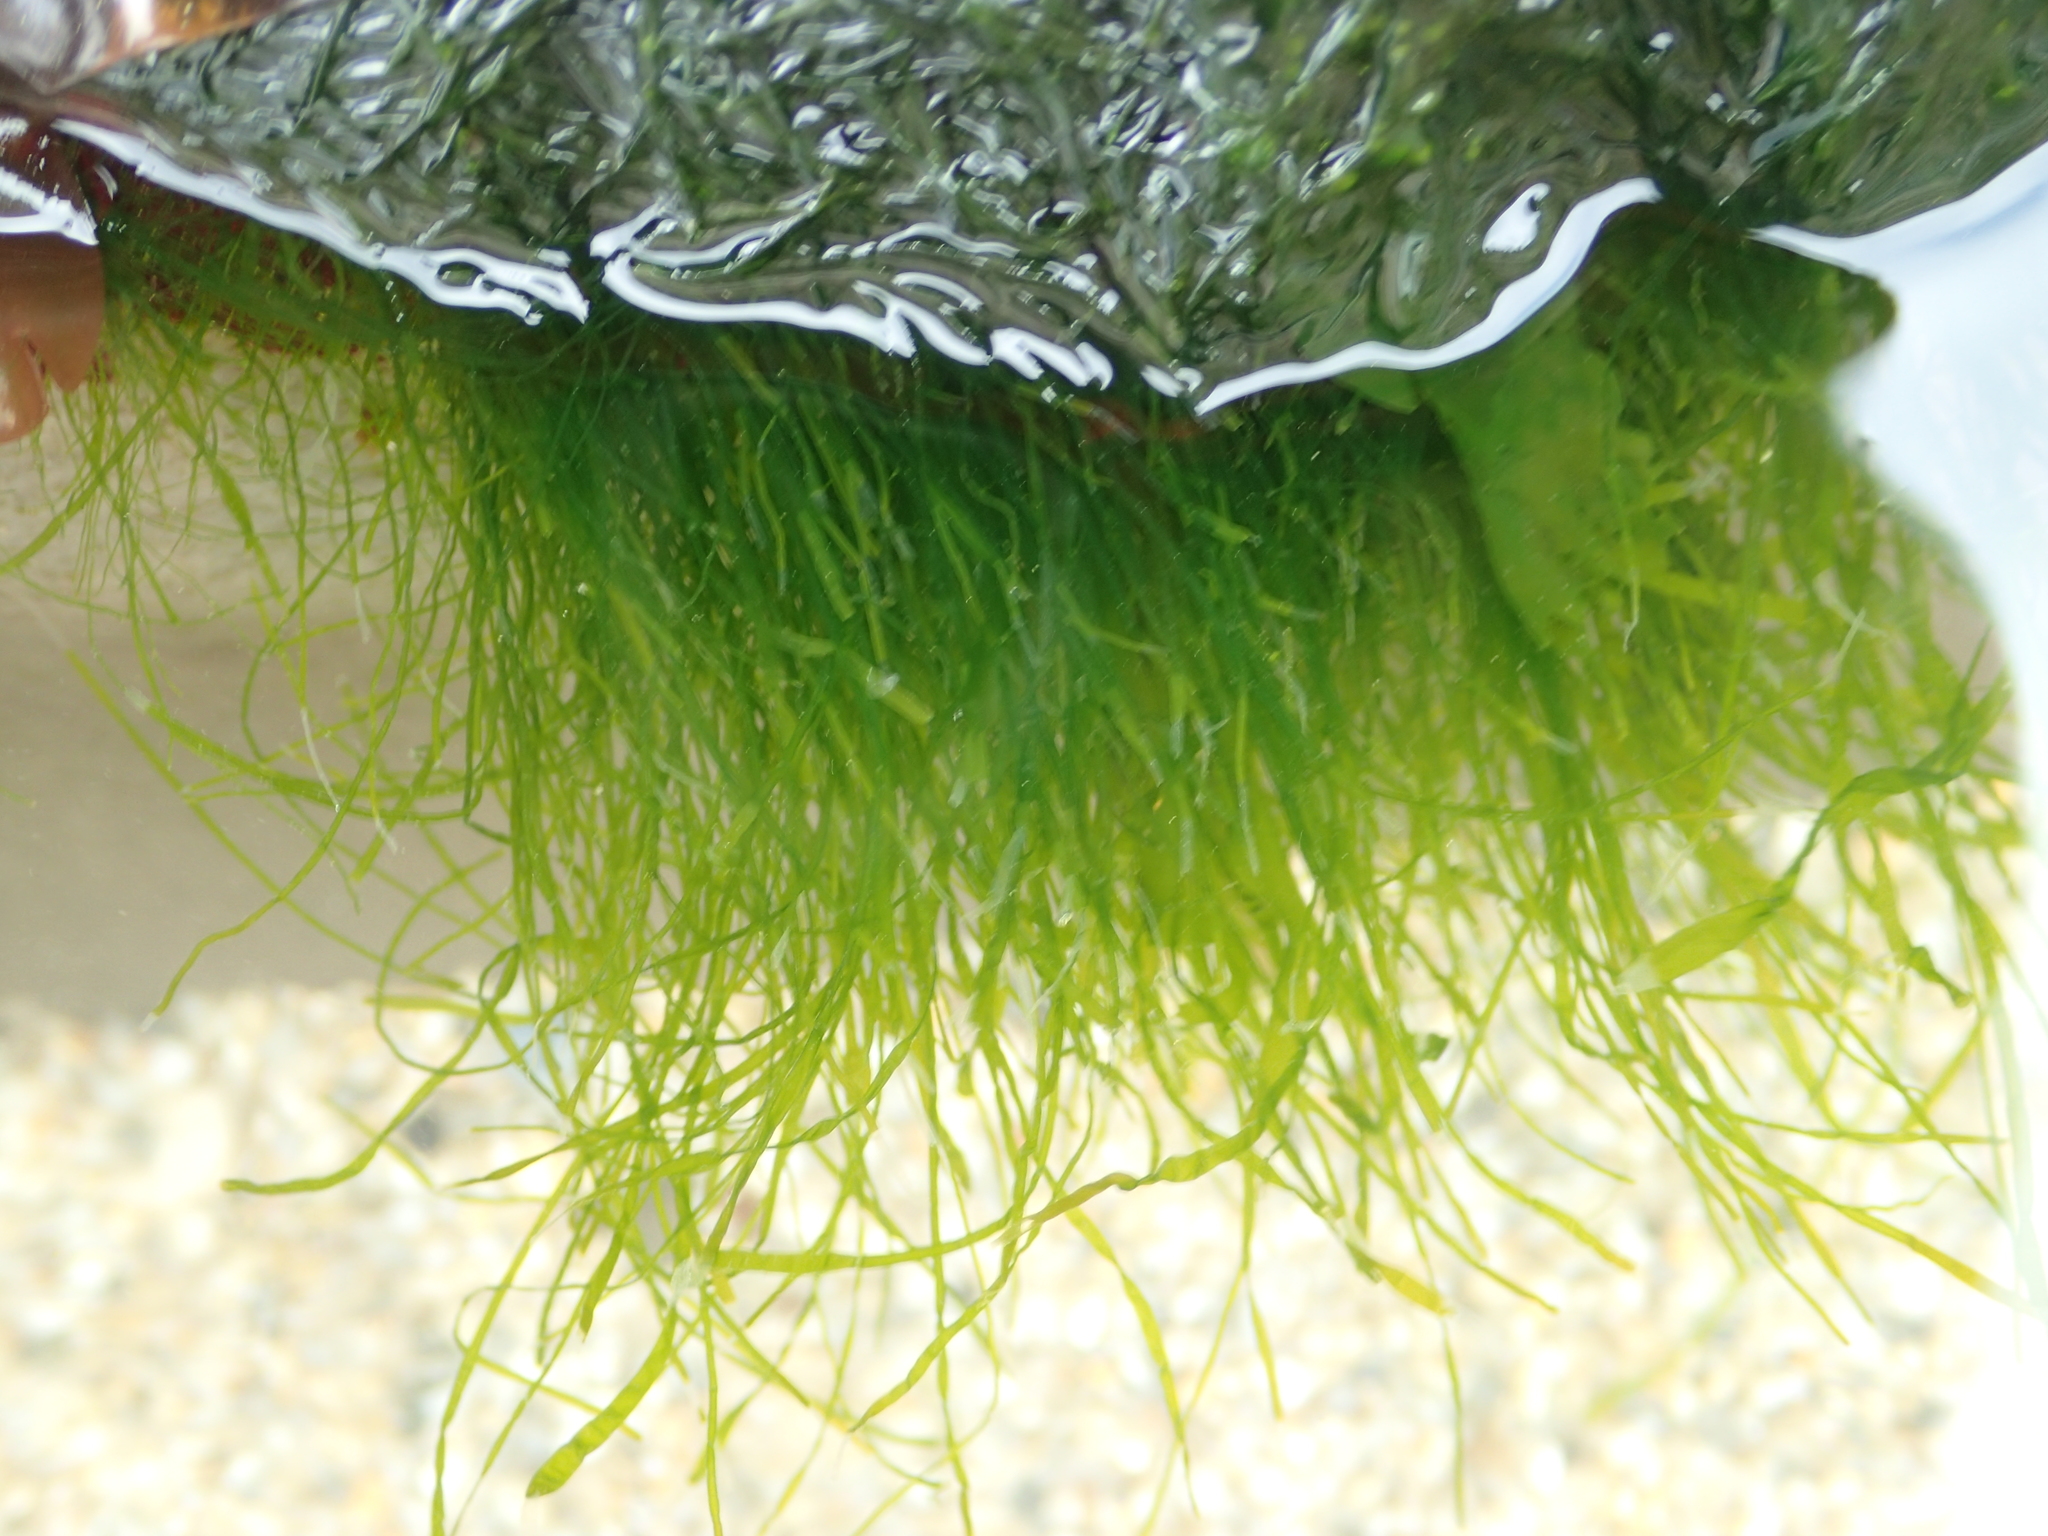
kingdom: Plantae
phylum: Chlorophyta
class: Ulvophyceae
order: Ulvales
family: Ulvaceae
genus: Ulva
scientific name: Ulva intestinalis
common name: Gut weed
